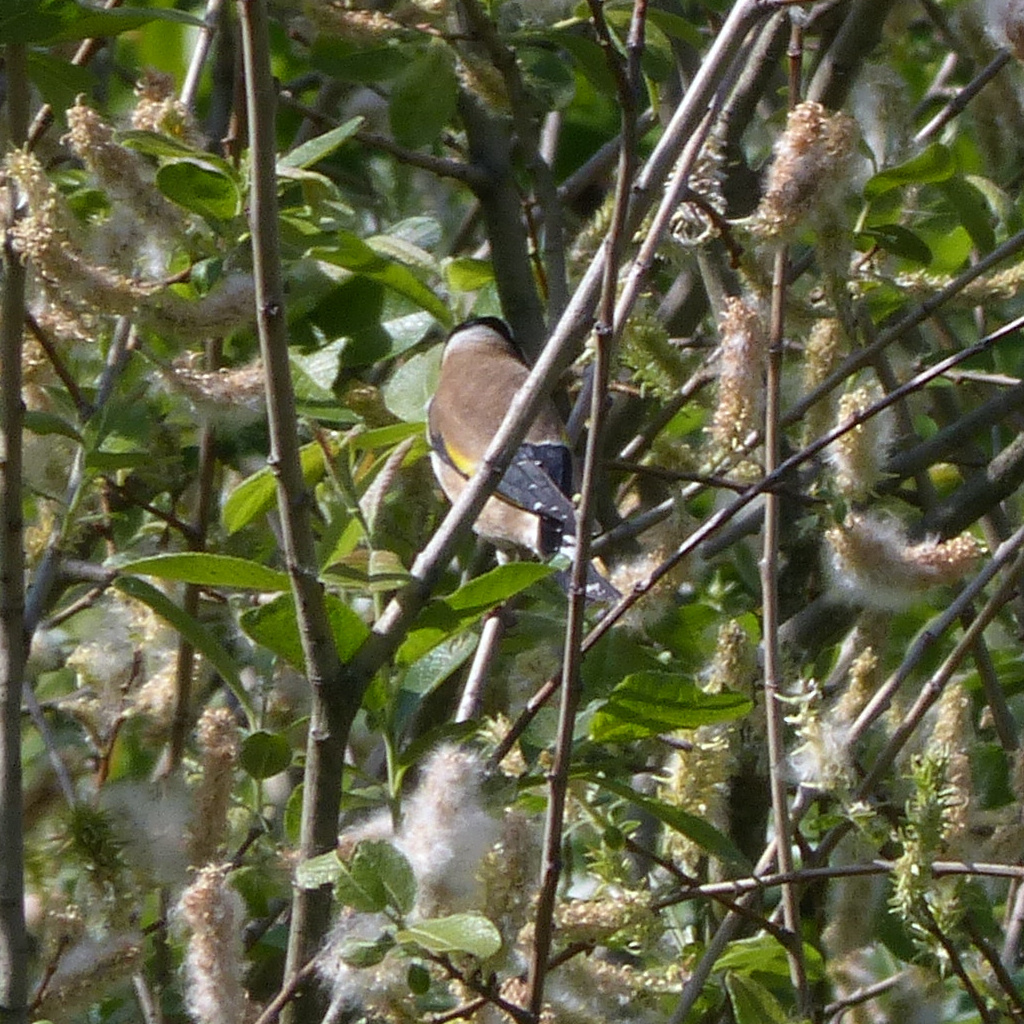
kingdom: Animalia
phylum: Chordata
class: Aves
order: Passeriformes
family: Fringillidae
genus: Carduelis
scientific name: Carduelis carduelis
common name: European goldfinch
